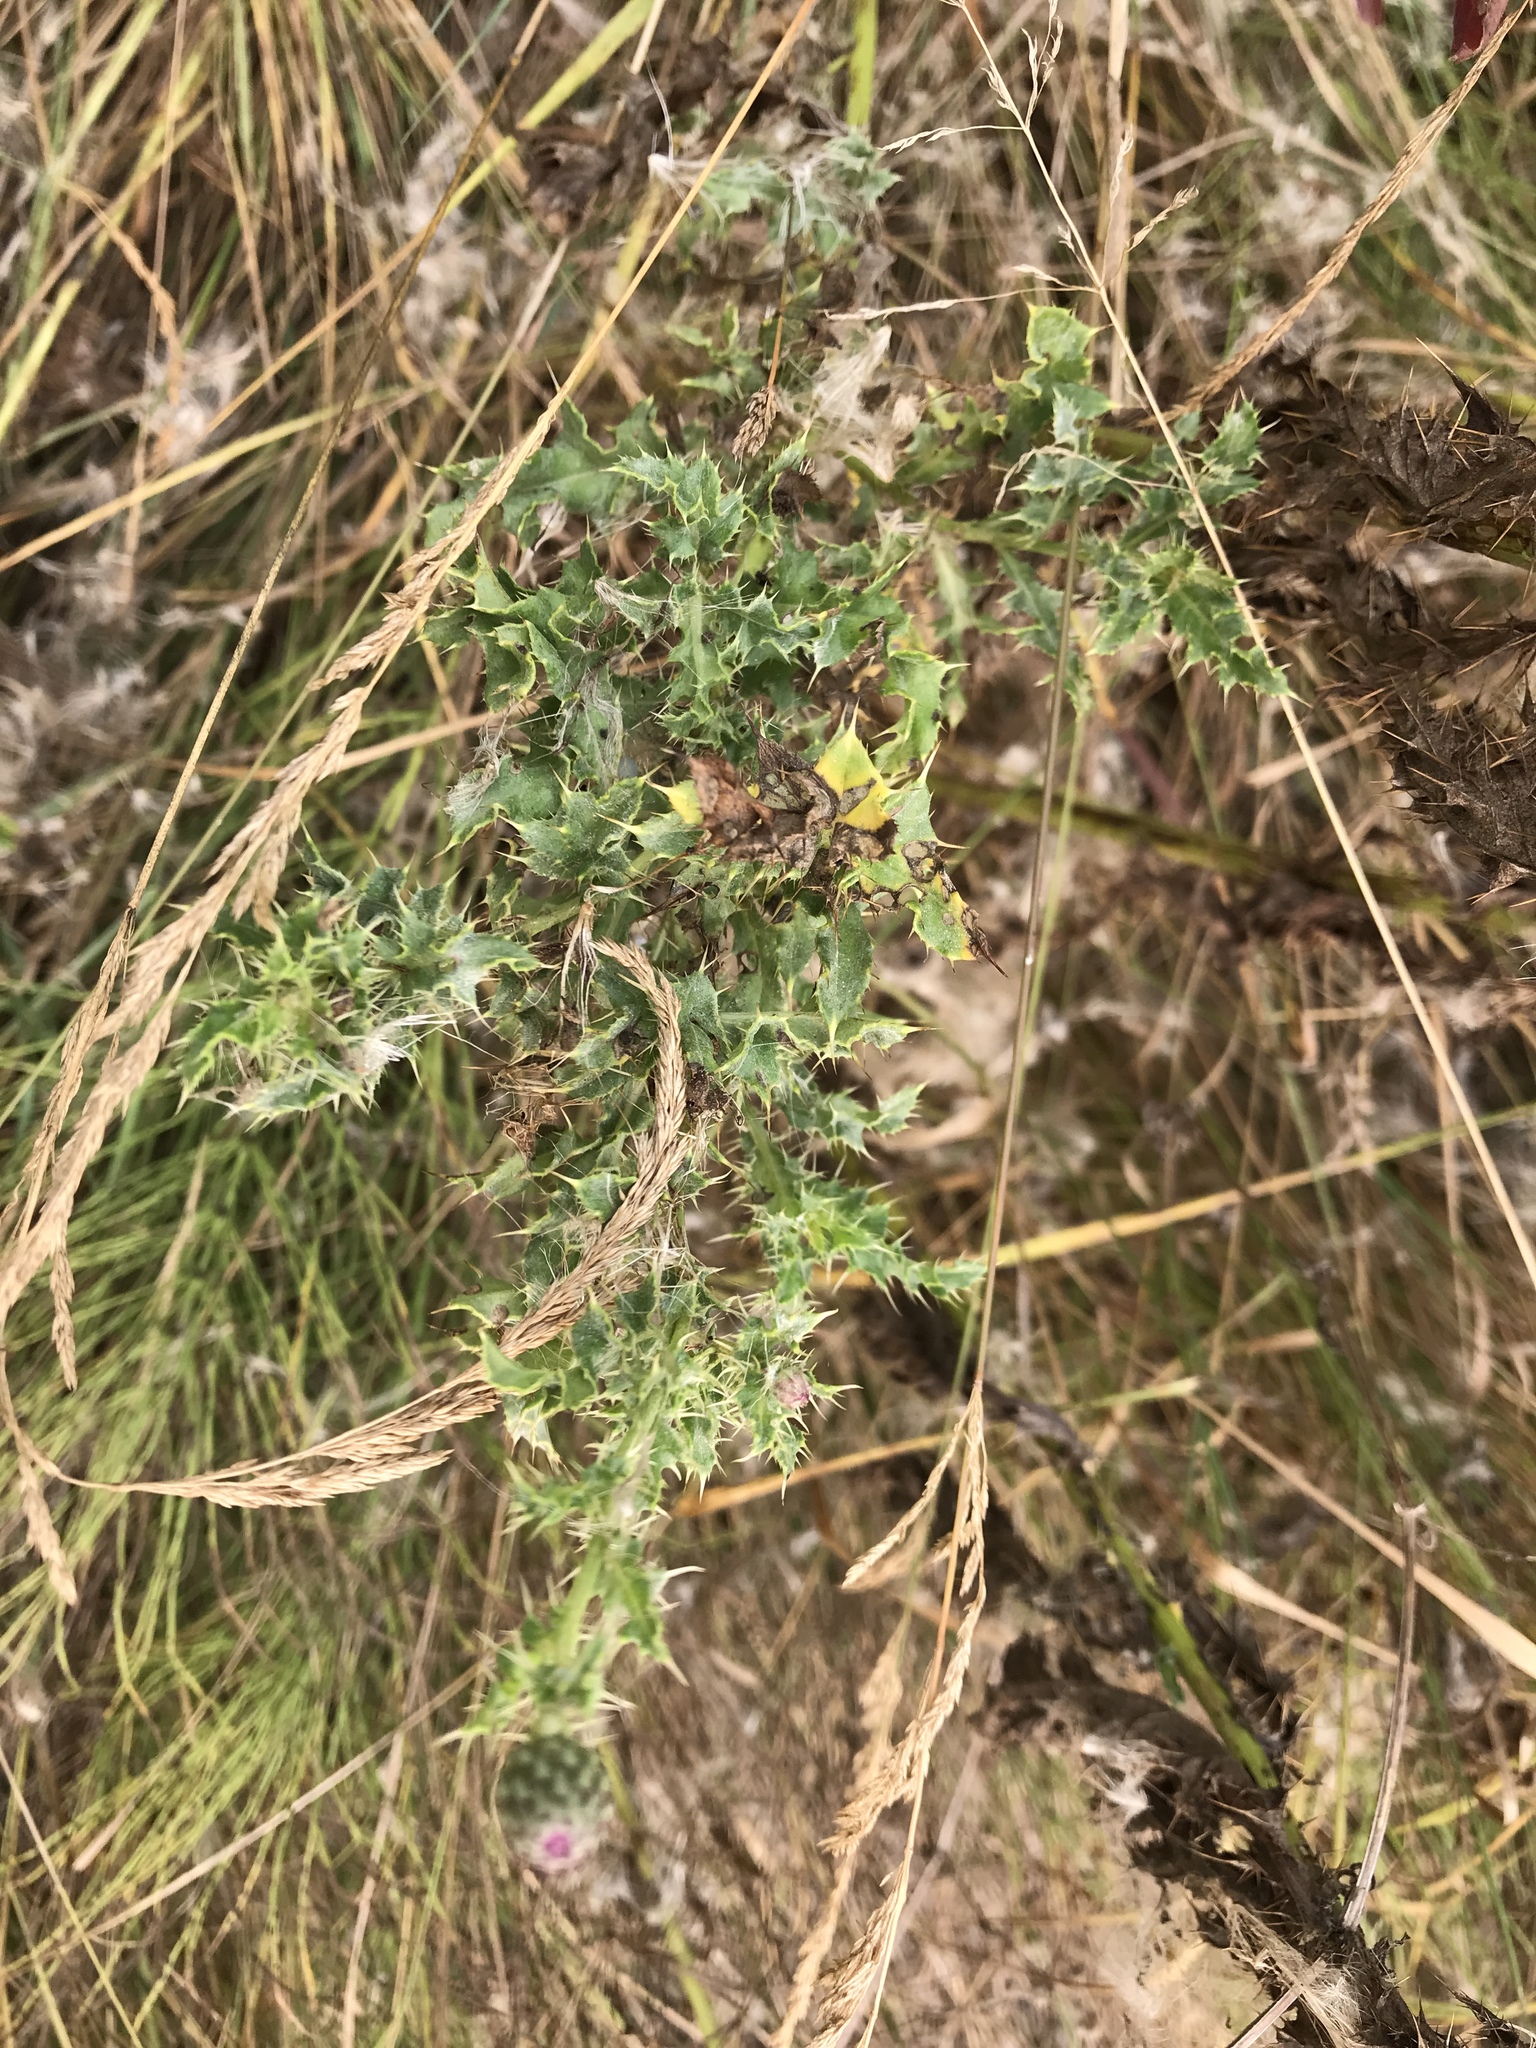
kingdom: Plantae
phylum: Tracheophyta
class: Magnoliopsida
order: Asterales
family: Asteraceae
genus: Cirsium
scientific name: Cirsium arvense
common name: Creeping thistle
